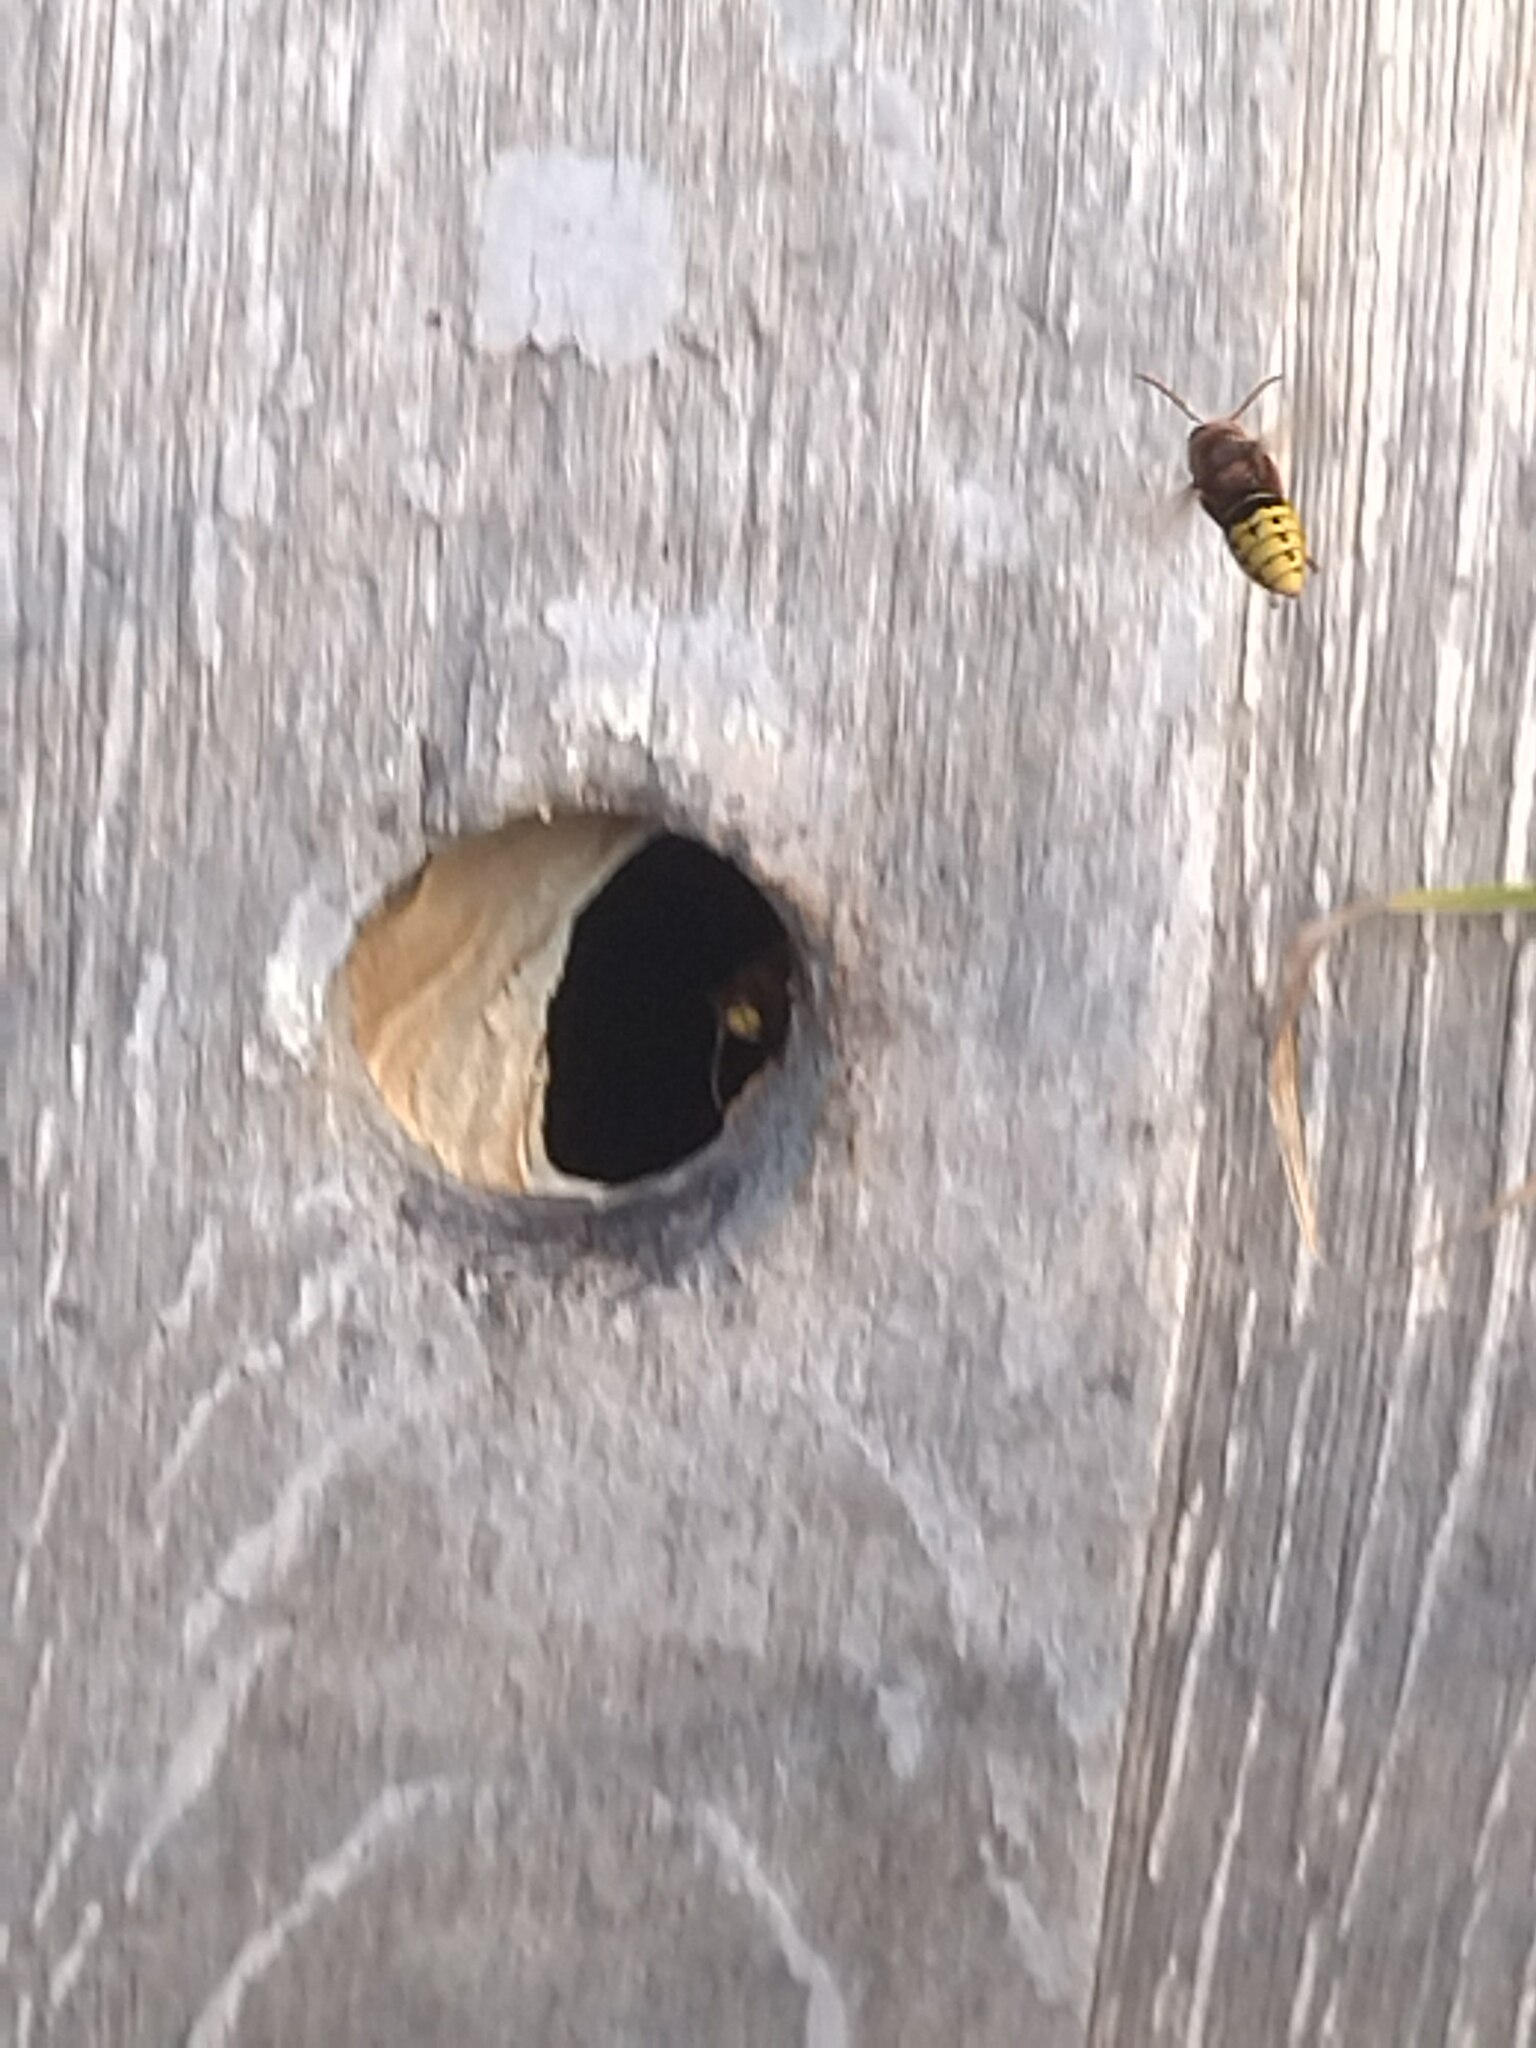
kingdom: Animalia
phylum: Arthropoda
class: Insecta
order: Hymenoptera
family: Vespidae
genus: Vespa
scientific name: Vespa crabro
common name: Hornet
